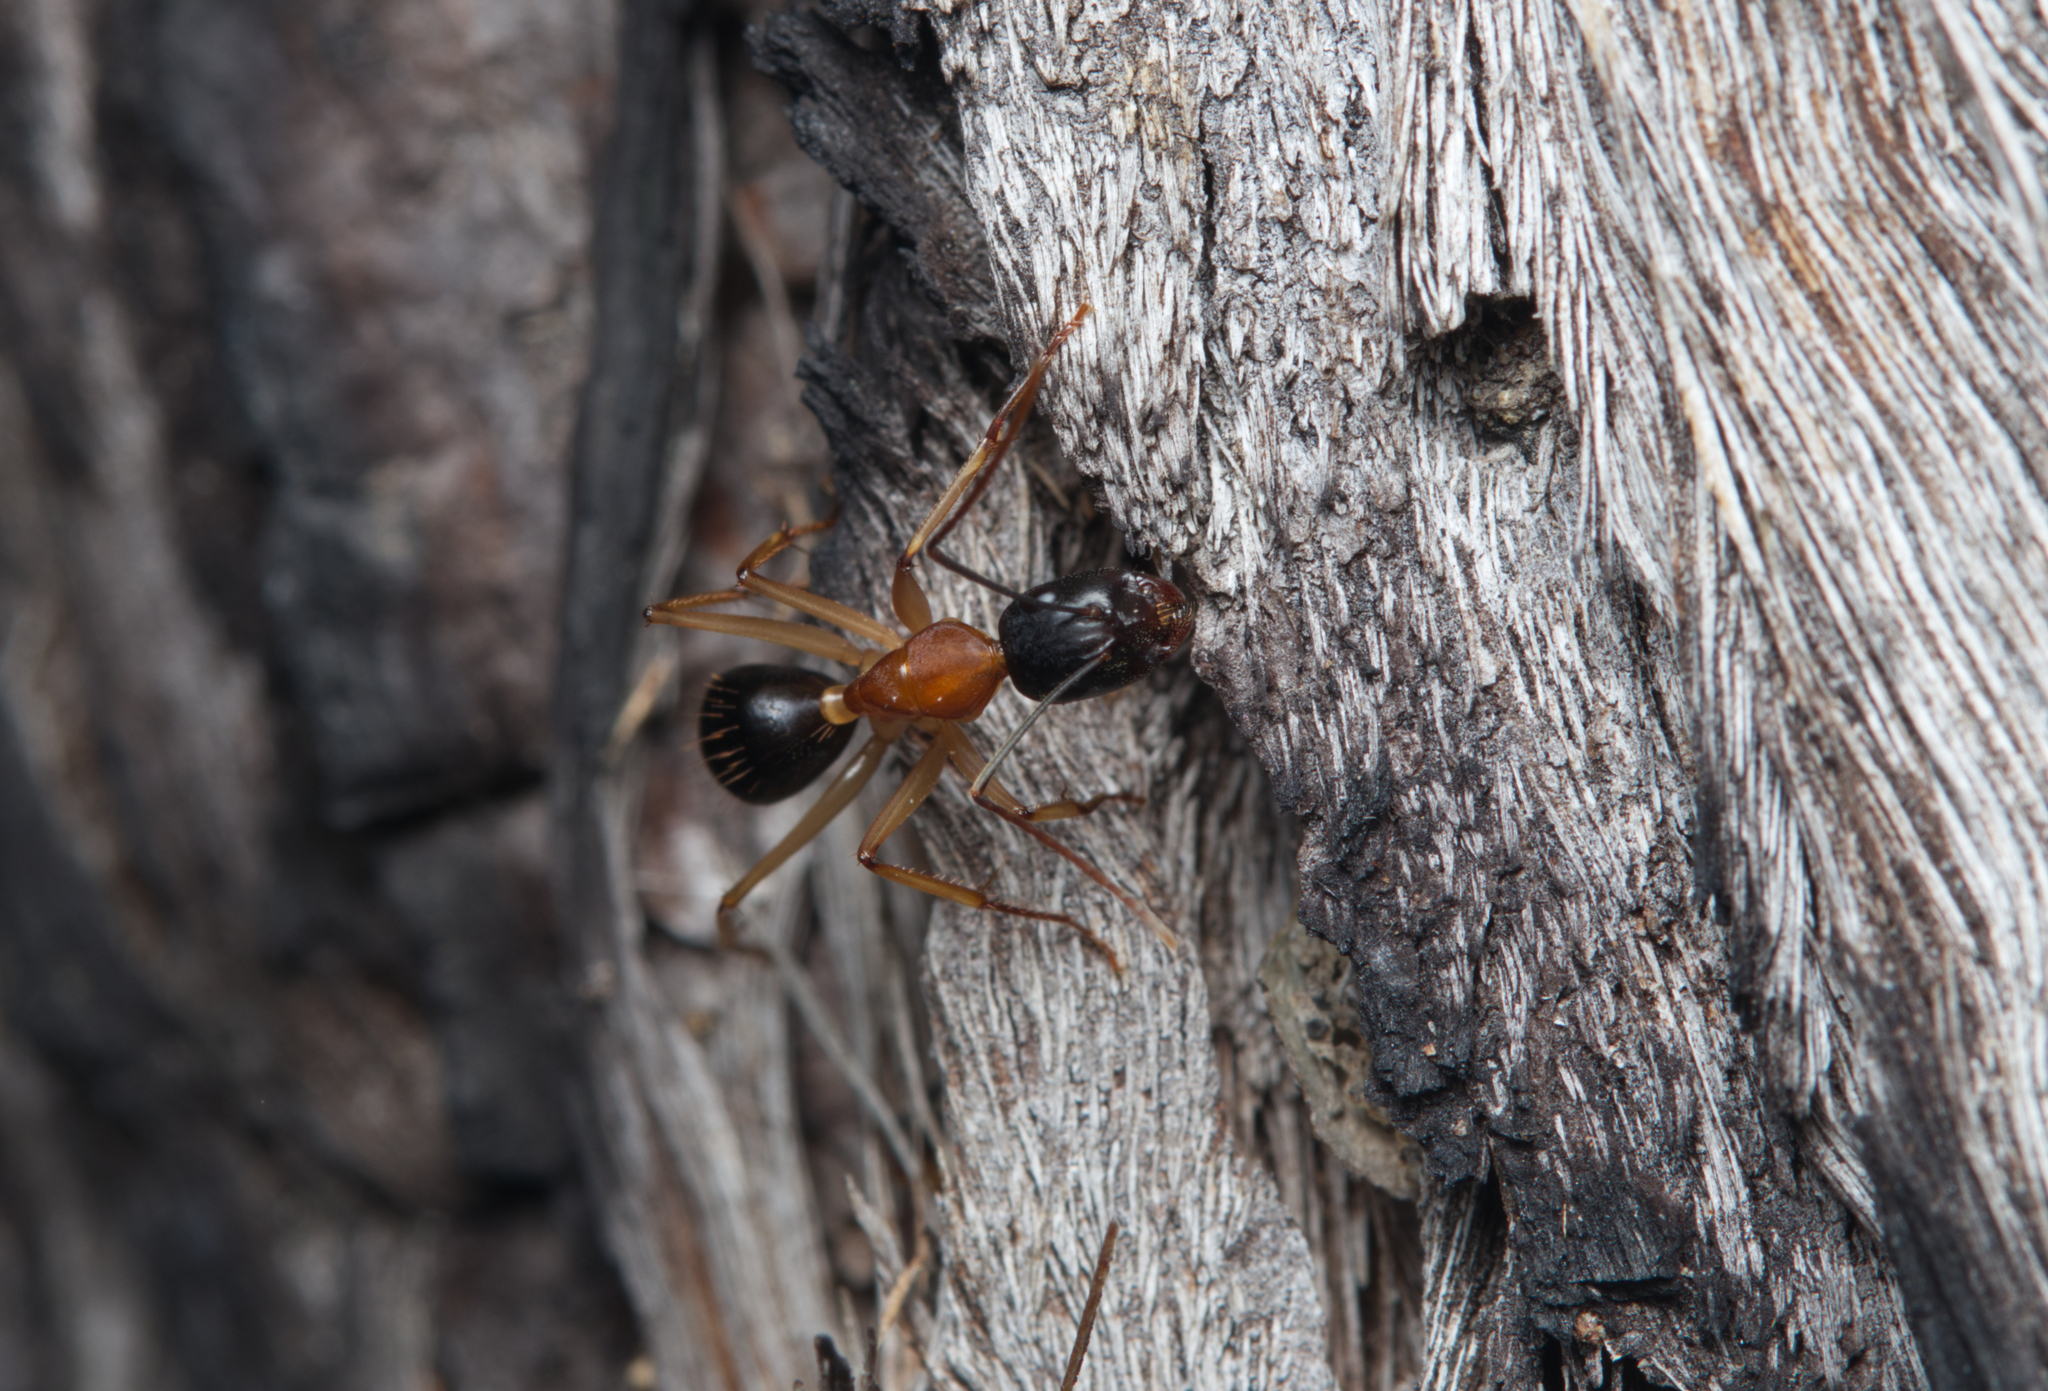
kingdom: Animalia
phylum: Arthropoda
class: Insecta
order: Hymenoptera
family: Formicidae
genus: Camponotus
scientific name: Camponotus nigriceps
